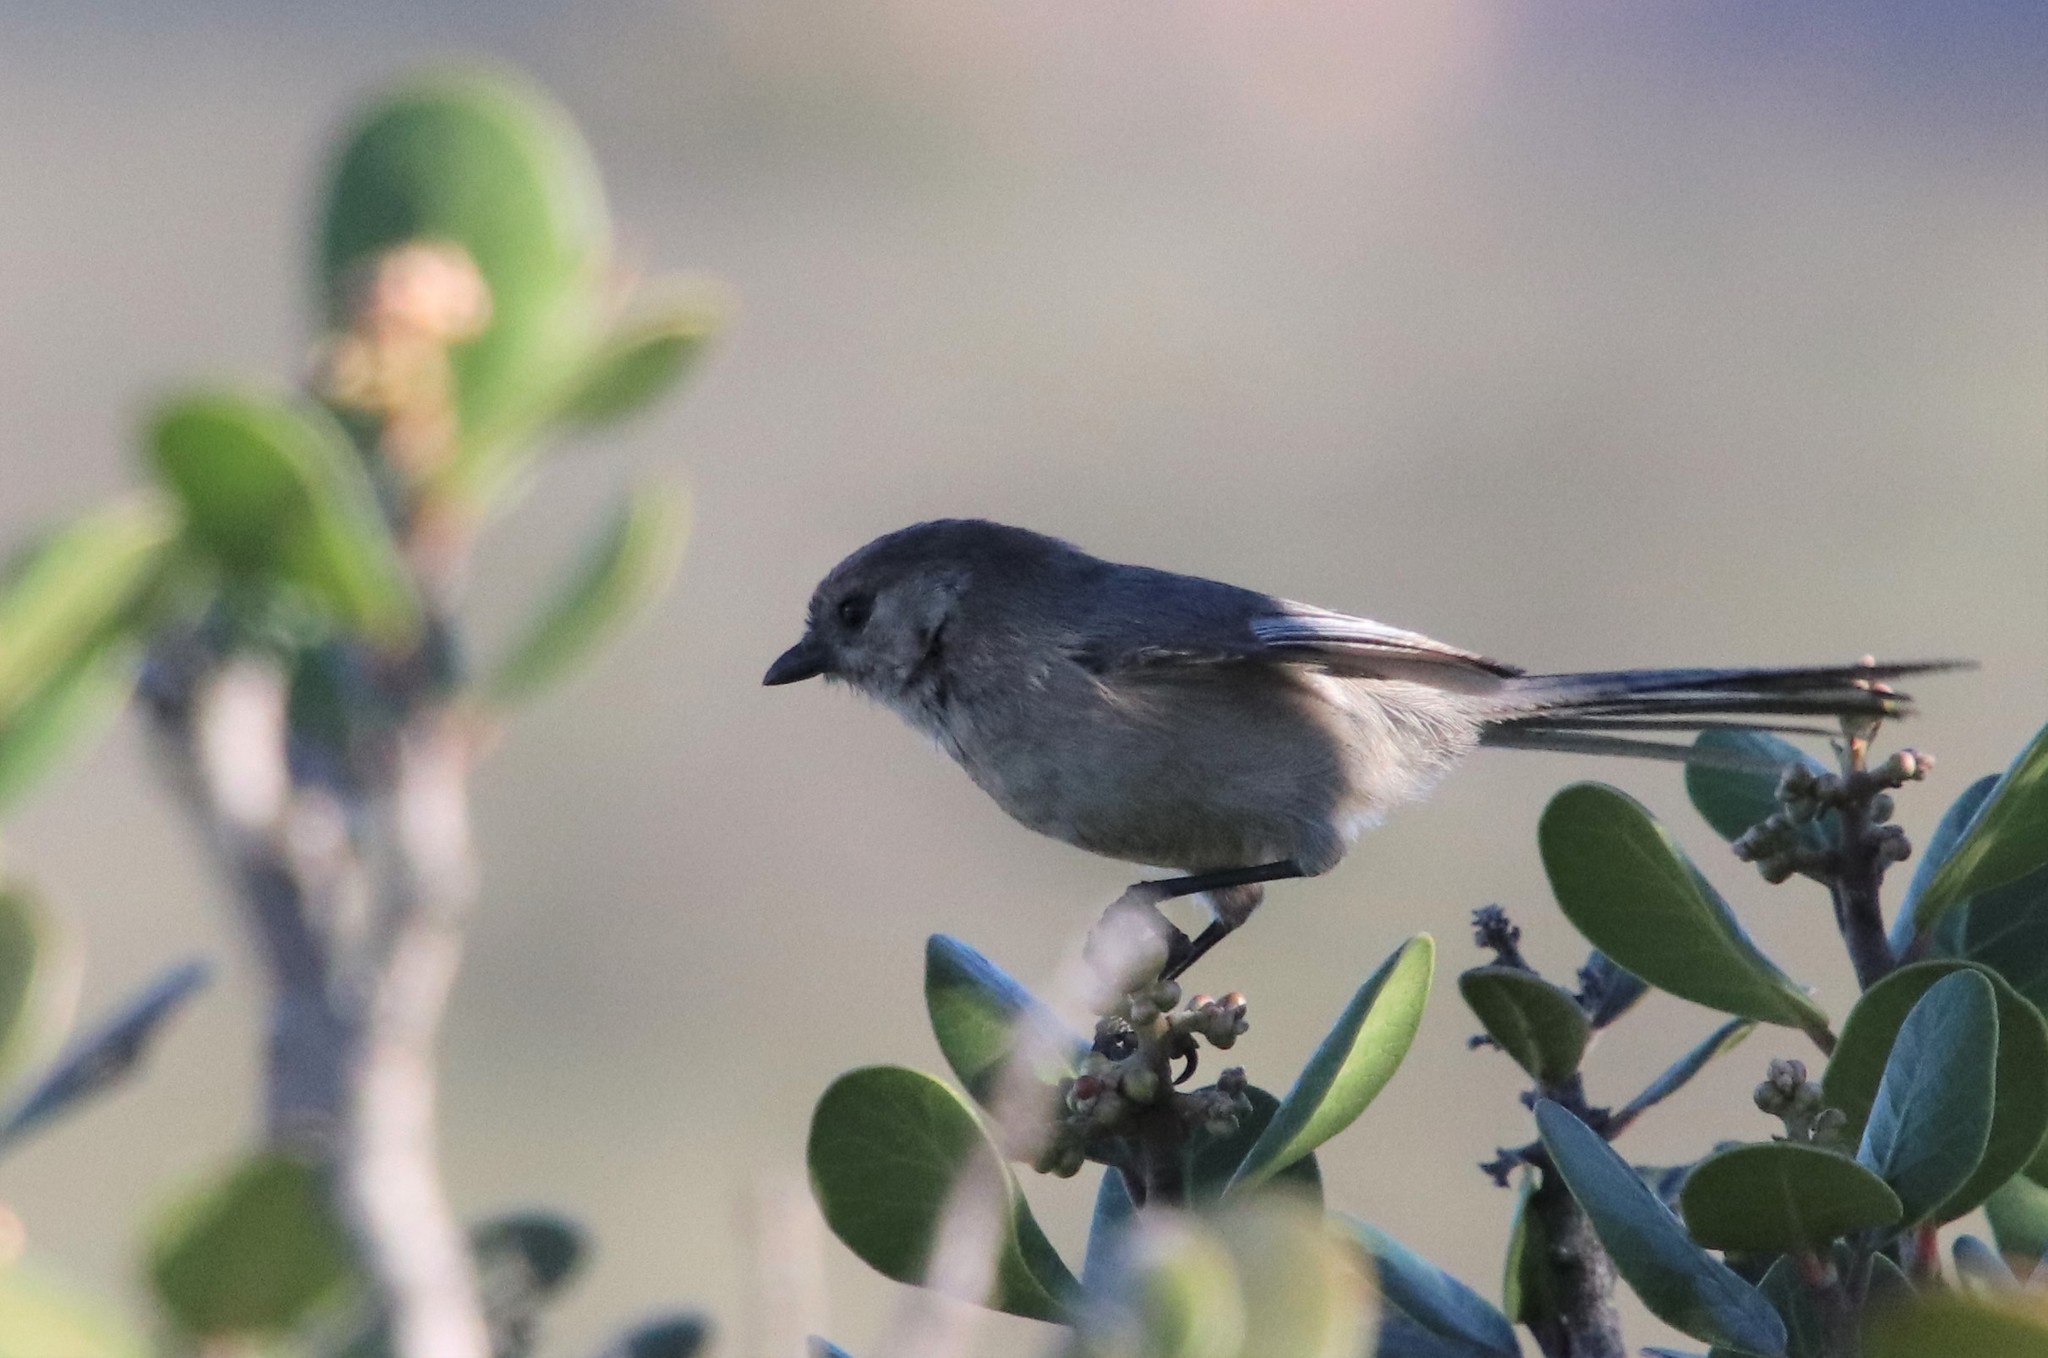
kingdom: Animalia
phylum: Chordata
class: Aves
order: Passeriformes
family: Aegithalidae
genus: Psaltriparus
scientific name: Psaltriparus minimus
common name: American bushtit
